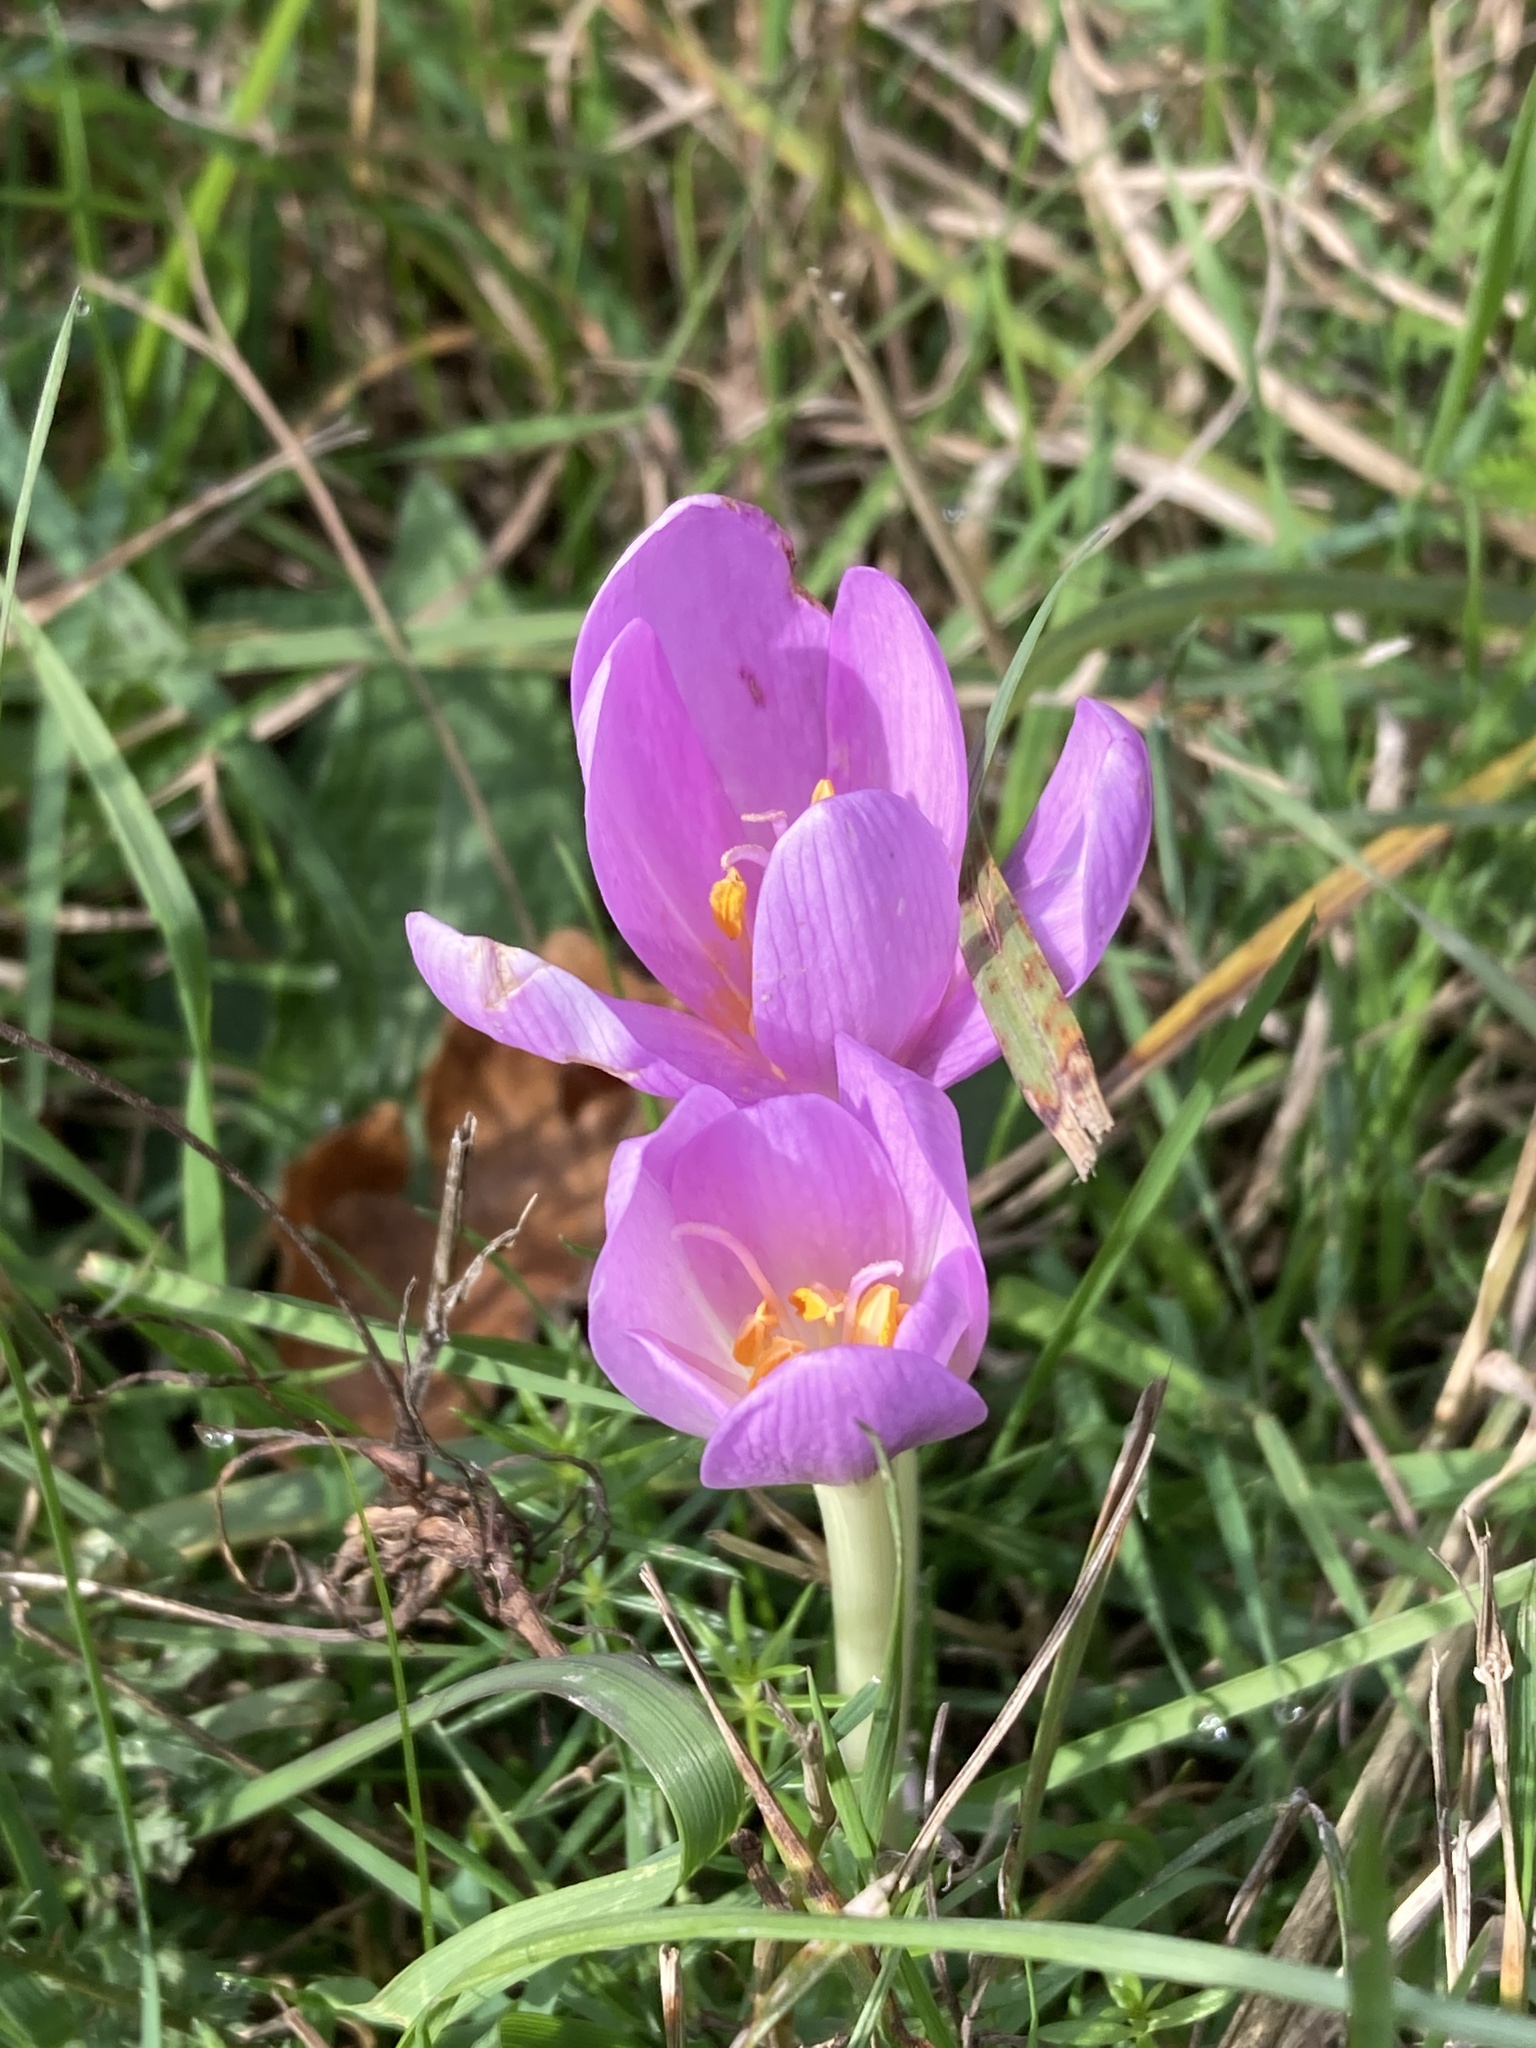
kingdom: Plantae
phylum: Tracheophyta
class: Liliopsida
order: Liliales
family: Colchicaceae
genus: Colchicum
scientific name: Colchicum autumnale
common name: Autumn crocus
